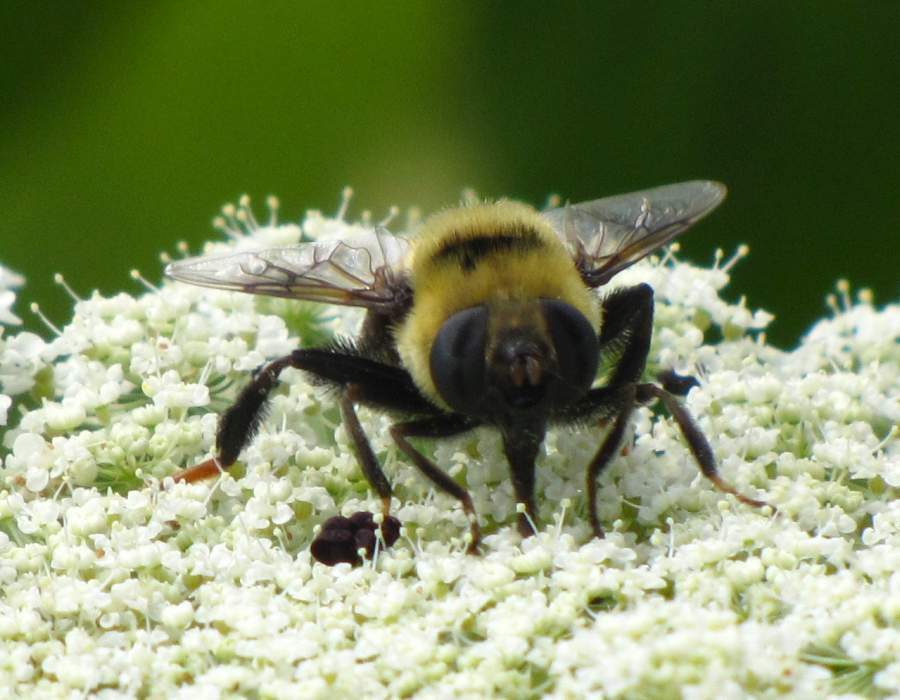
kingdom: Animalia
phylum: Arthropoda
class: Insecta
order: Diptera
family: Syrphidae
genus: Eristalis
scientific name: Eristalis flavipes
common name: Orange-legged drone fly
